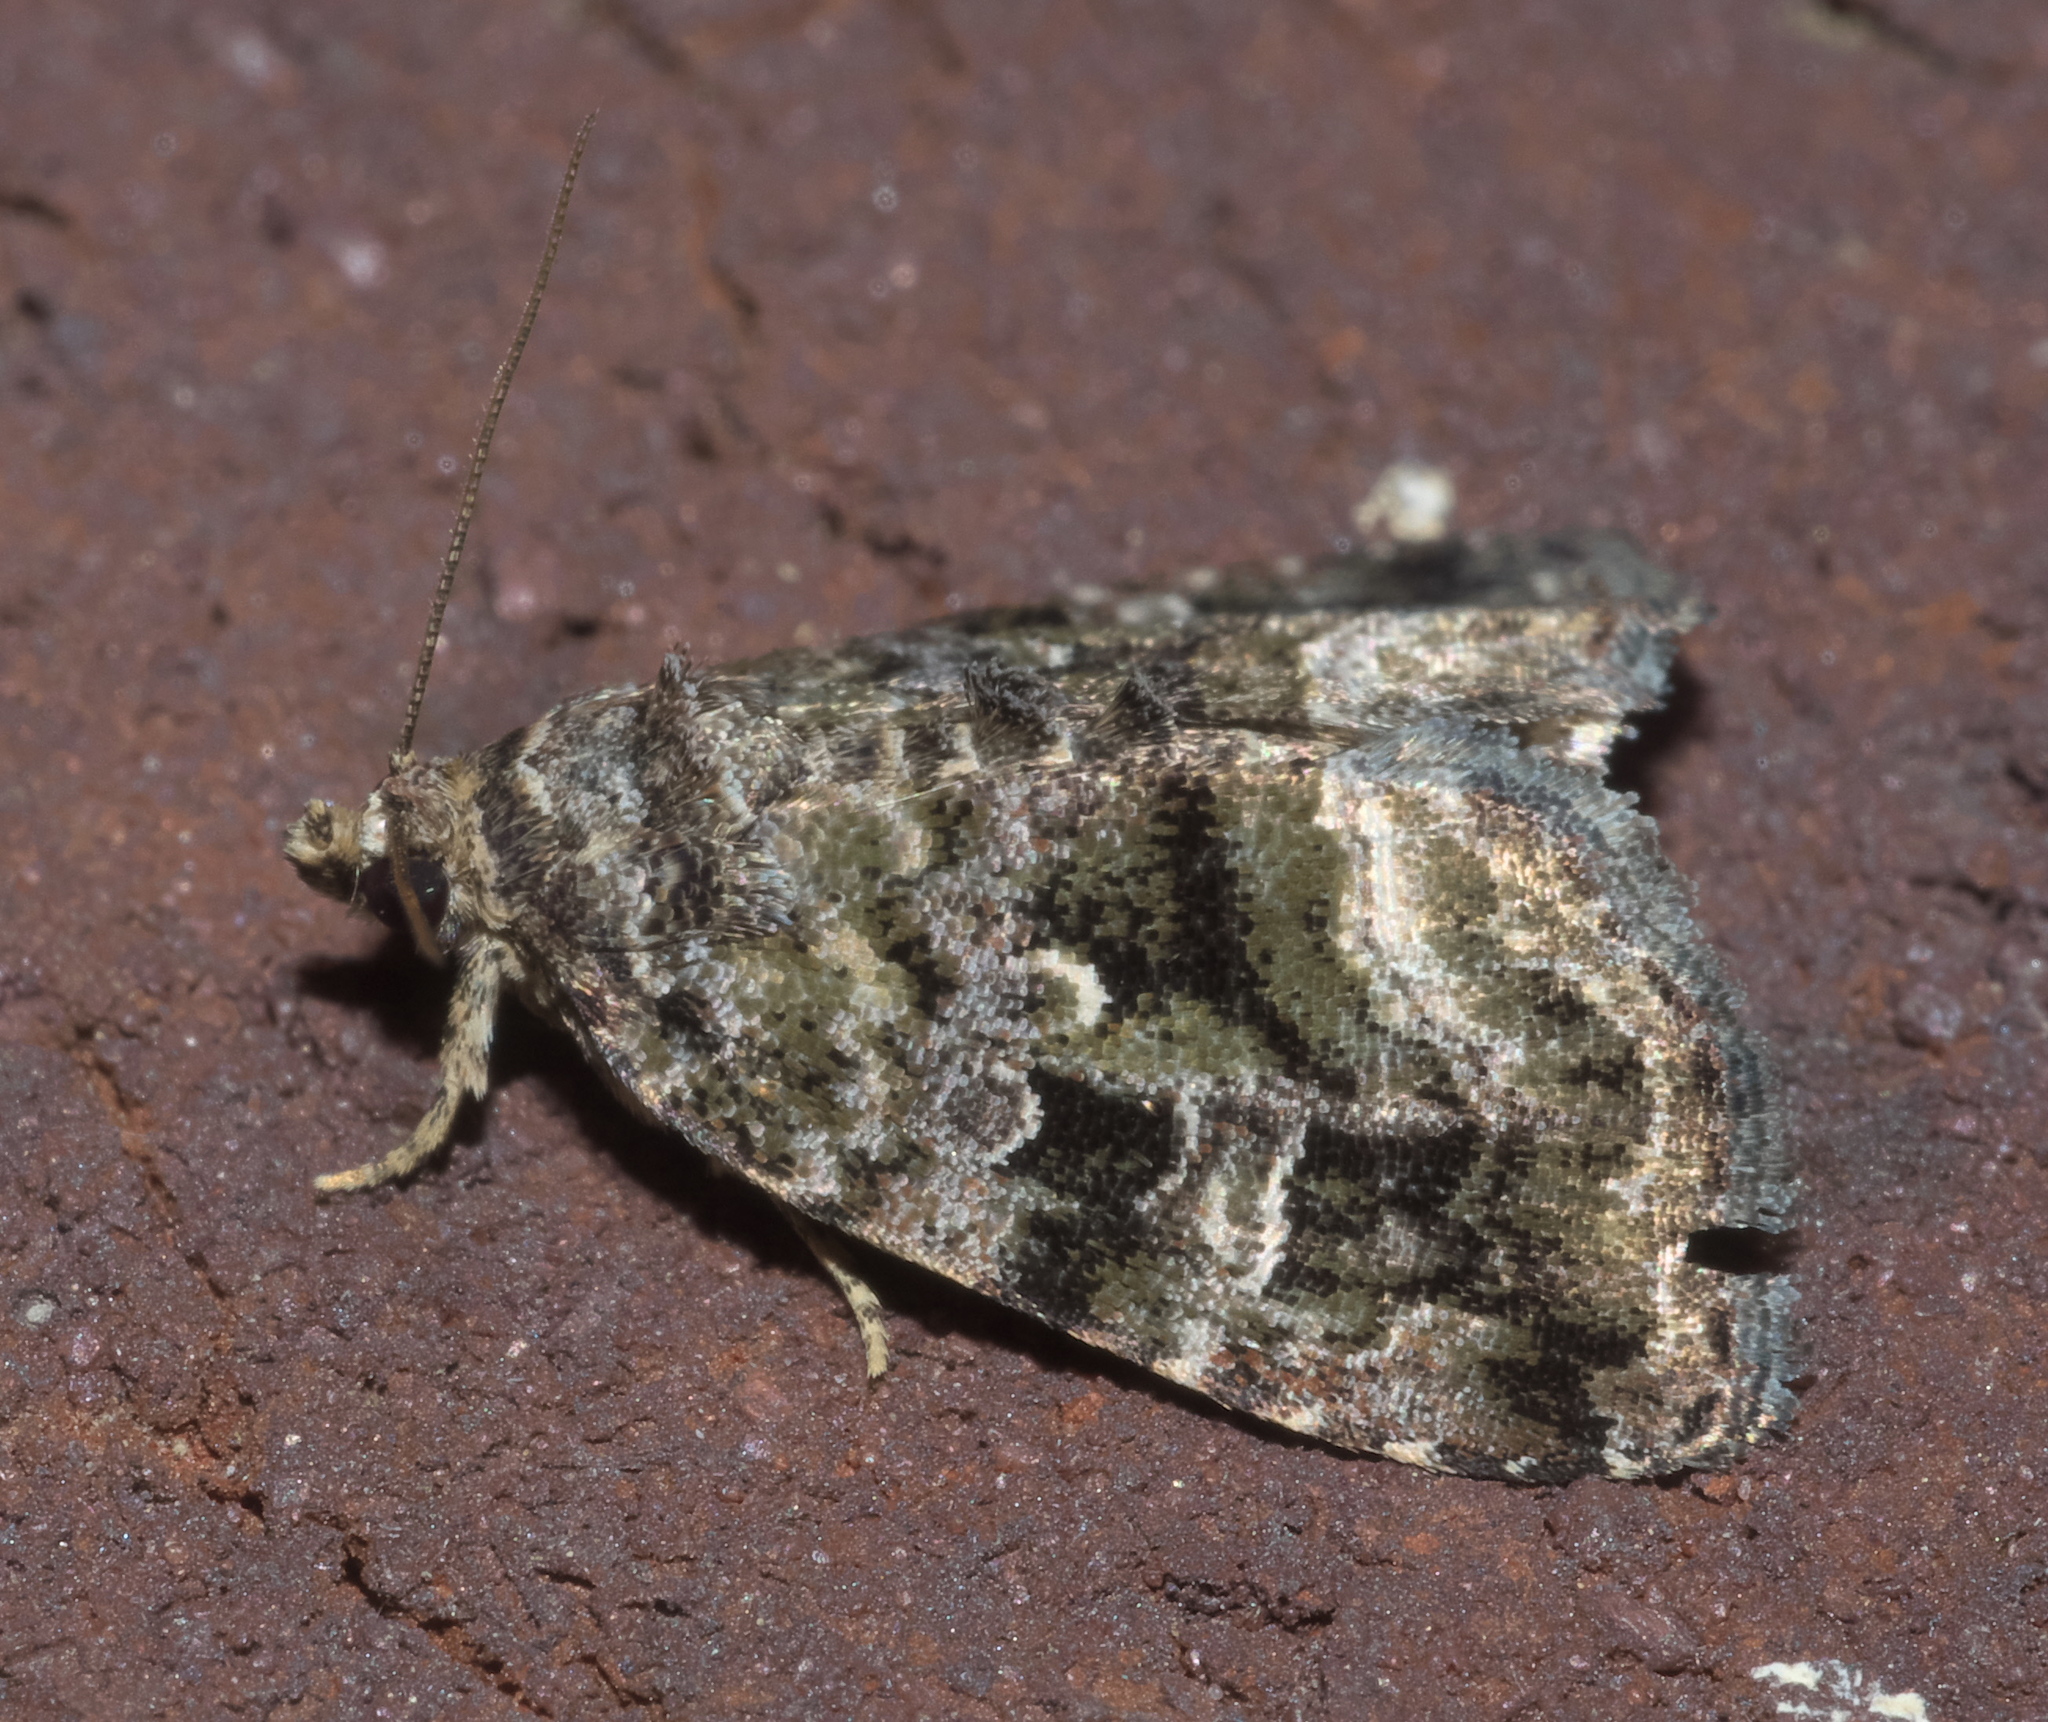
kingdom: Animalia
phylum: Arthropoda
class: Insecta
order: Lepidoptera
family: Noctuidae
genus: Protodeltote
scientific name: Protodeltote muscosula
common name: Large mossy glyph
